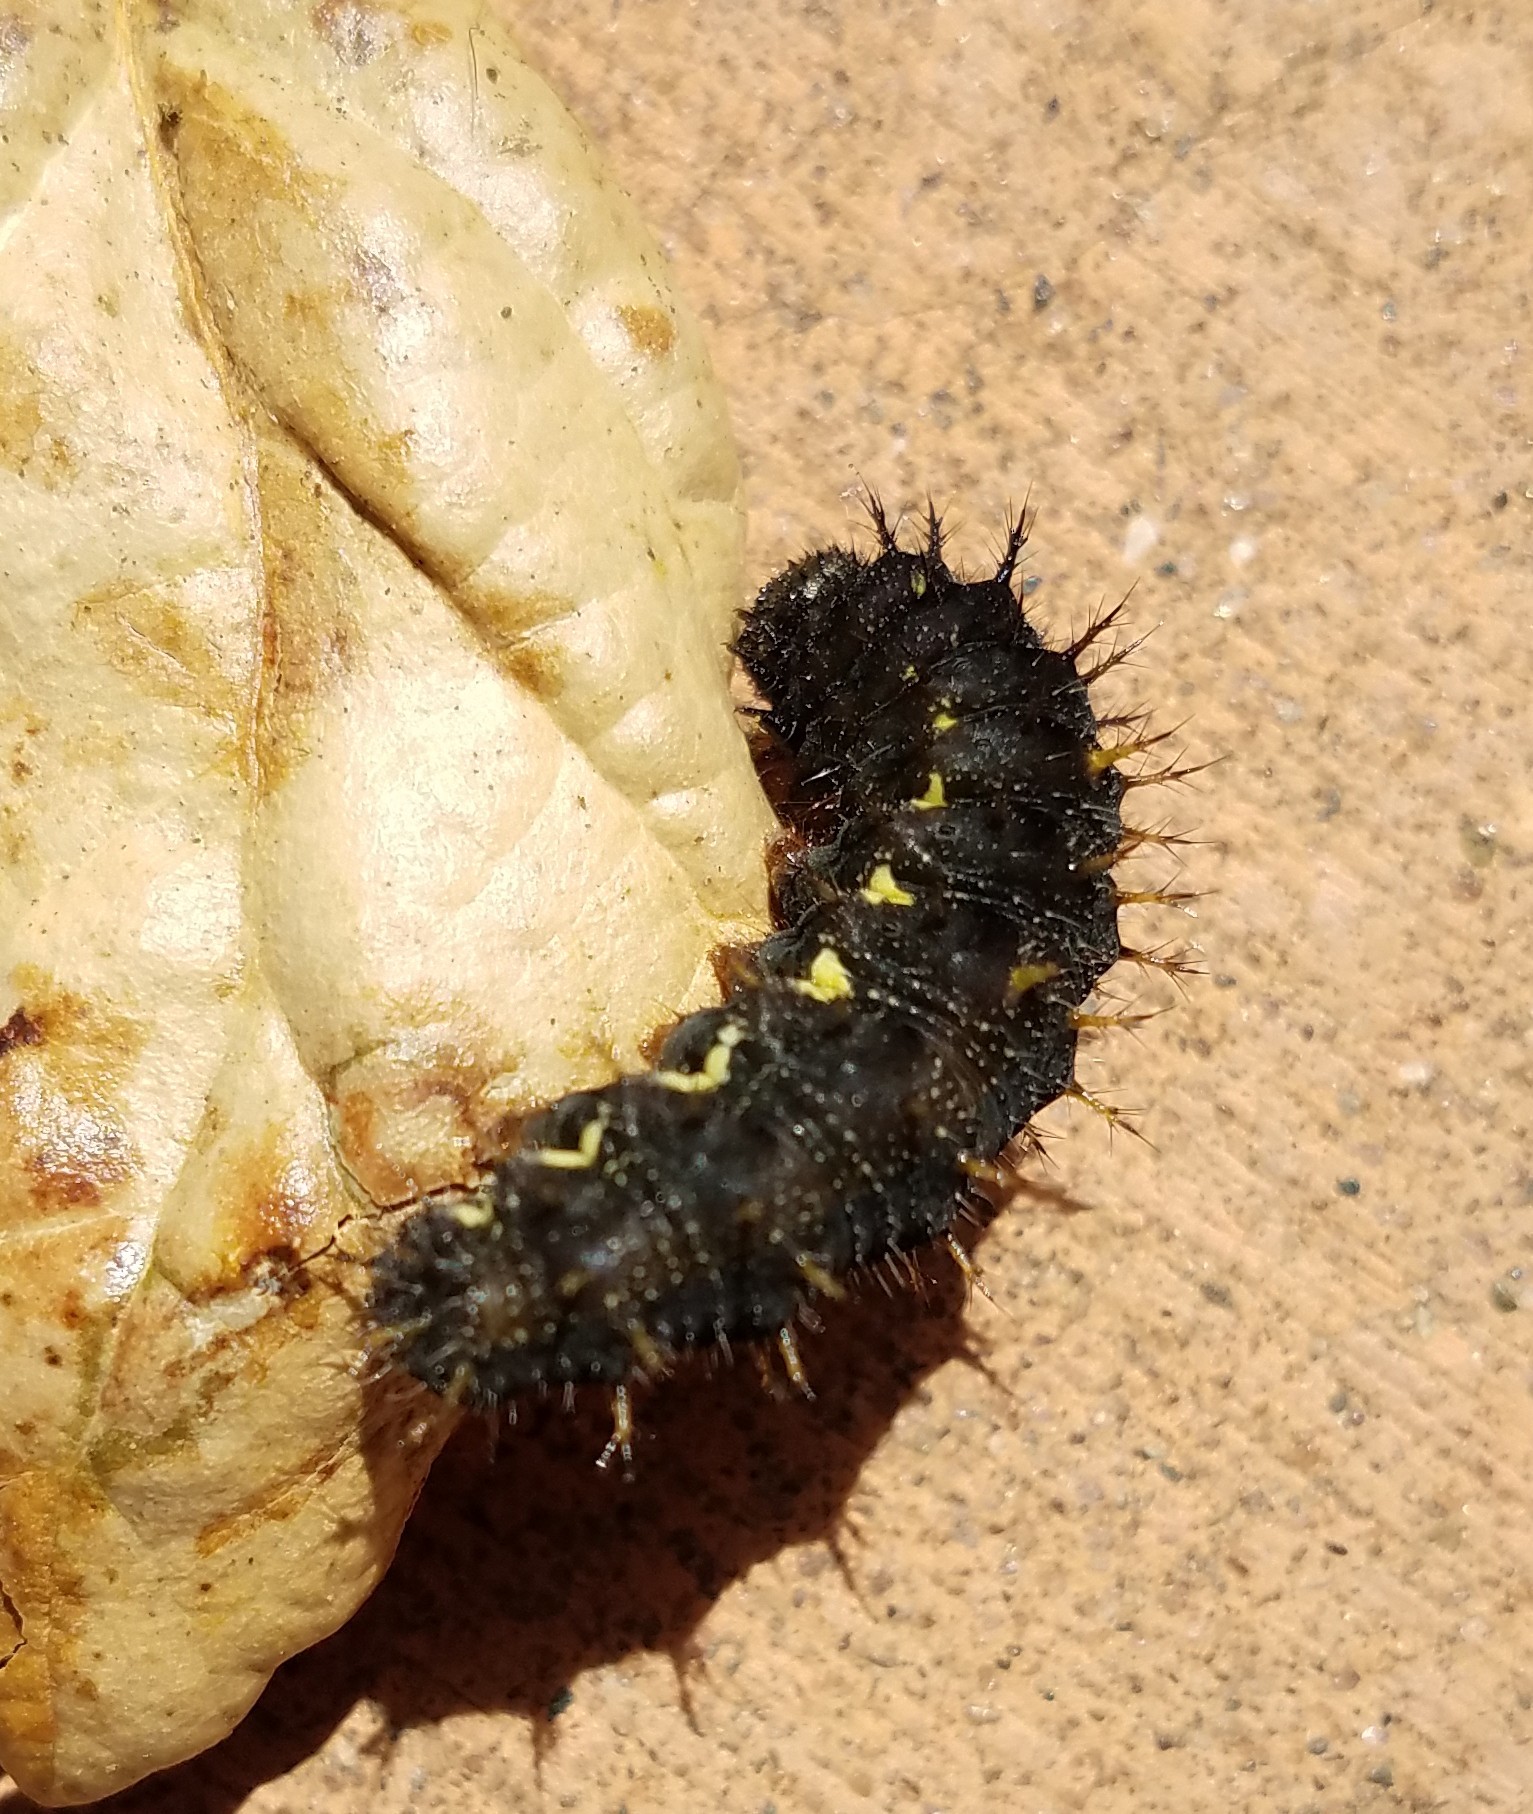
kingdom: Animalia
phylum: Arthropoda
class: Insecta
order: Lepidoptera
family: Nymphalidae
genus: Vanessa
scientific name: Vanessa atalanta
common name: Red admiral
